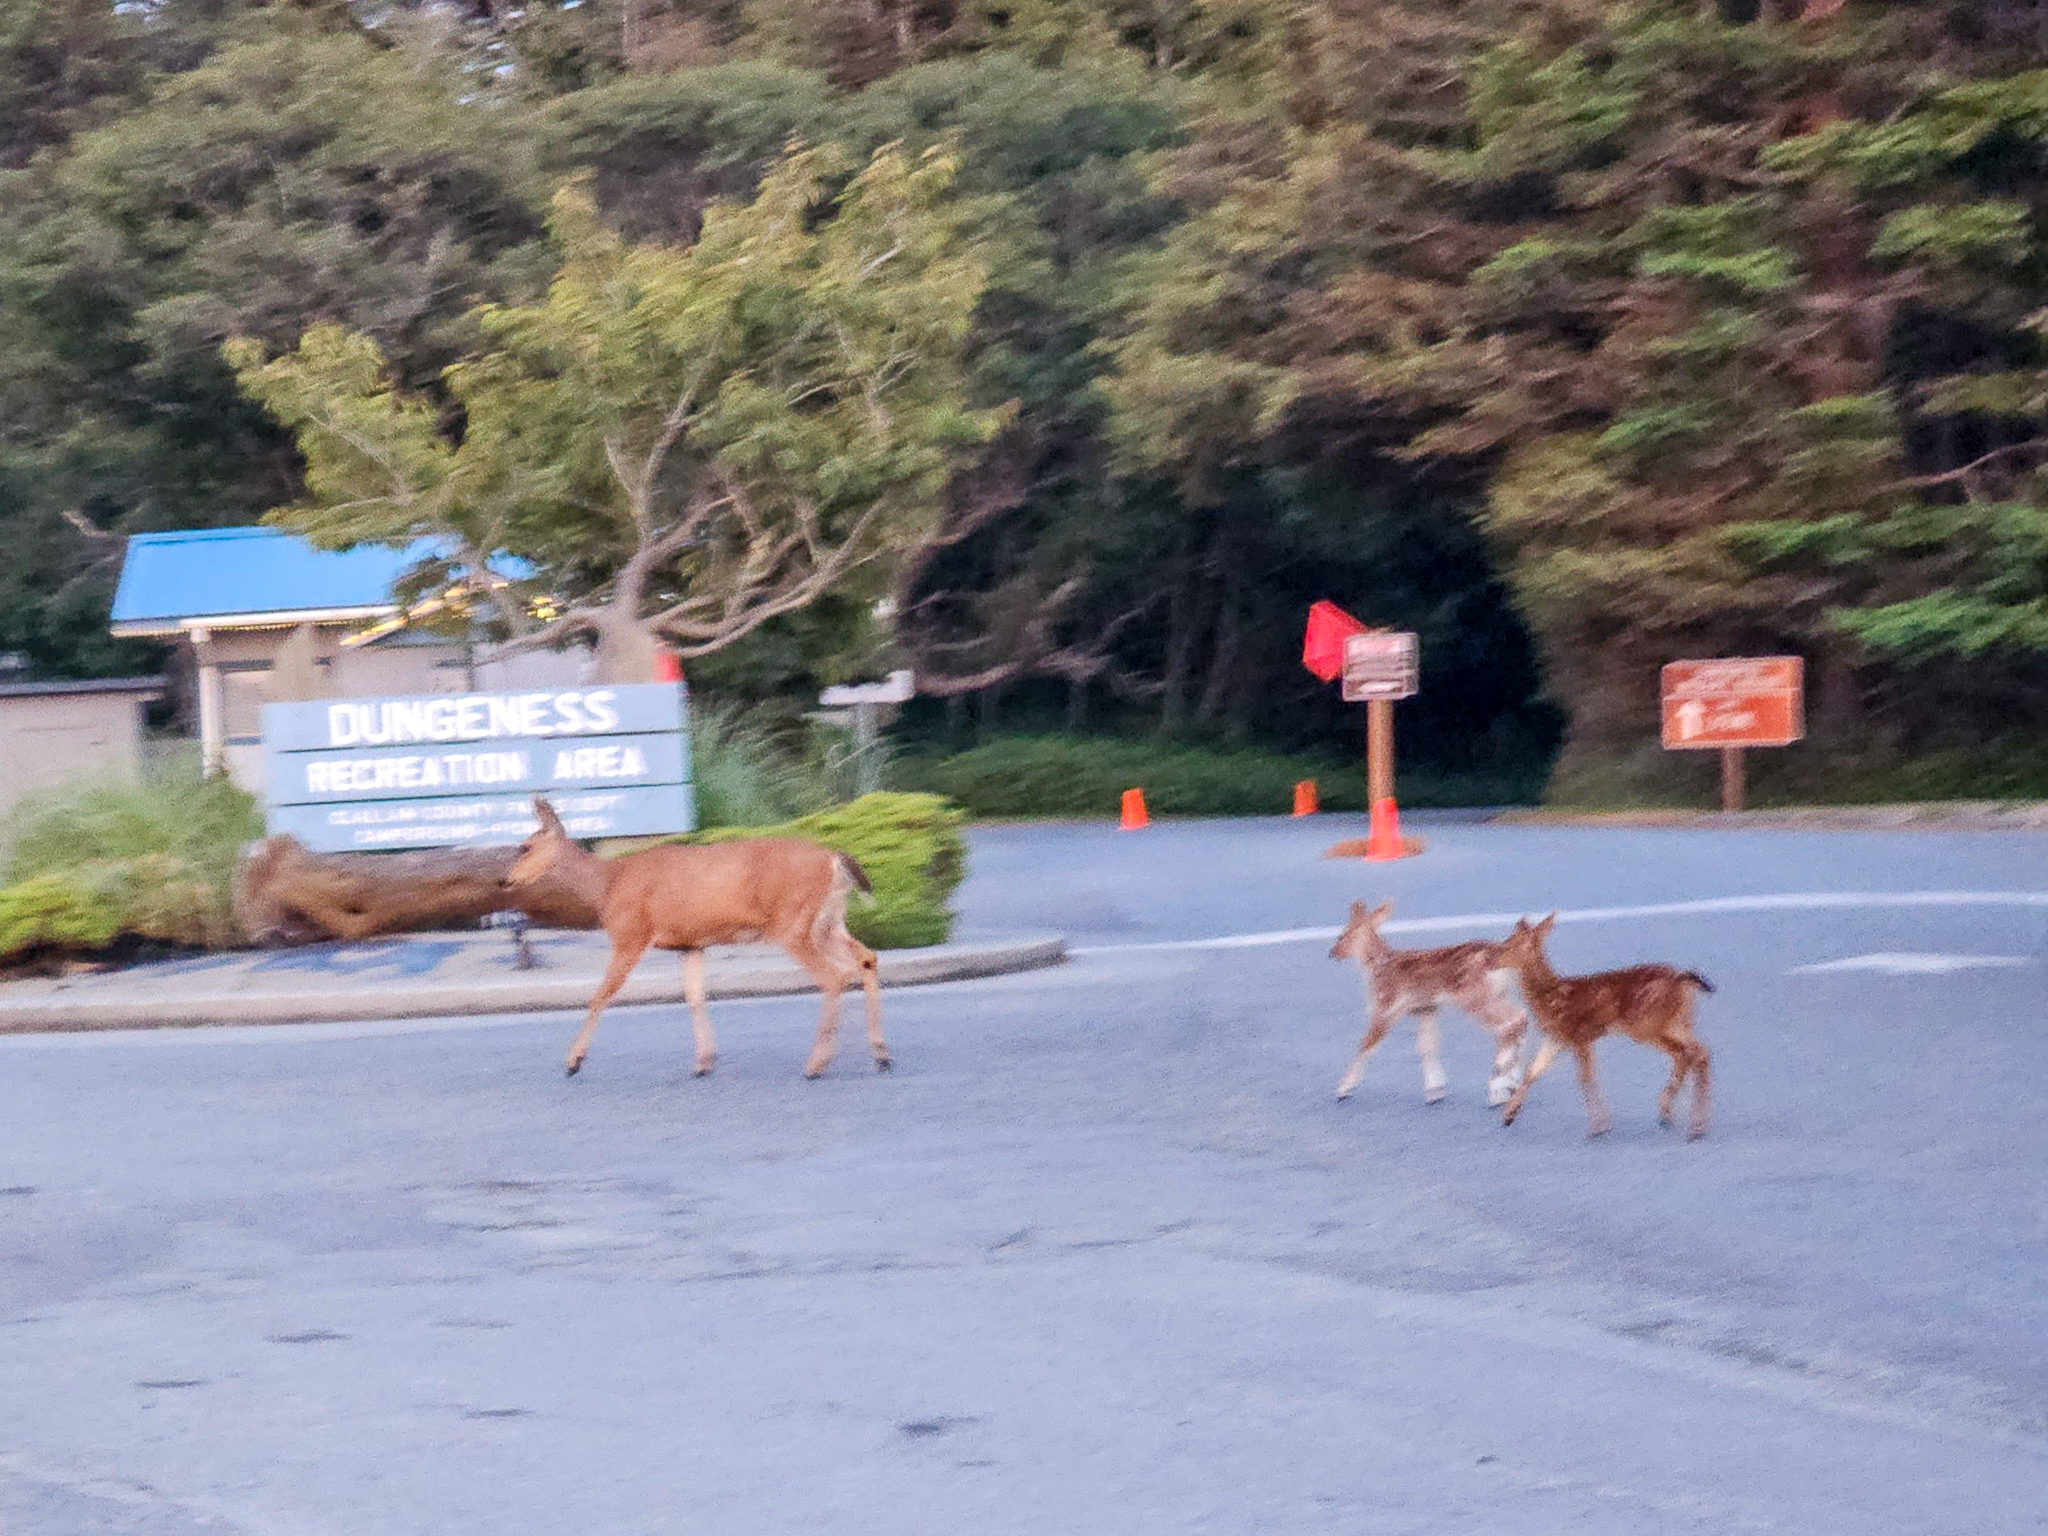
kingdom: Animalia
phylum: Chordata
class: Mammalia
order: Artiodactyla
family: Cervidae
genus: Odocoileus
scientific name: Odocoileus hemionus
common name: Mule deer
